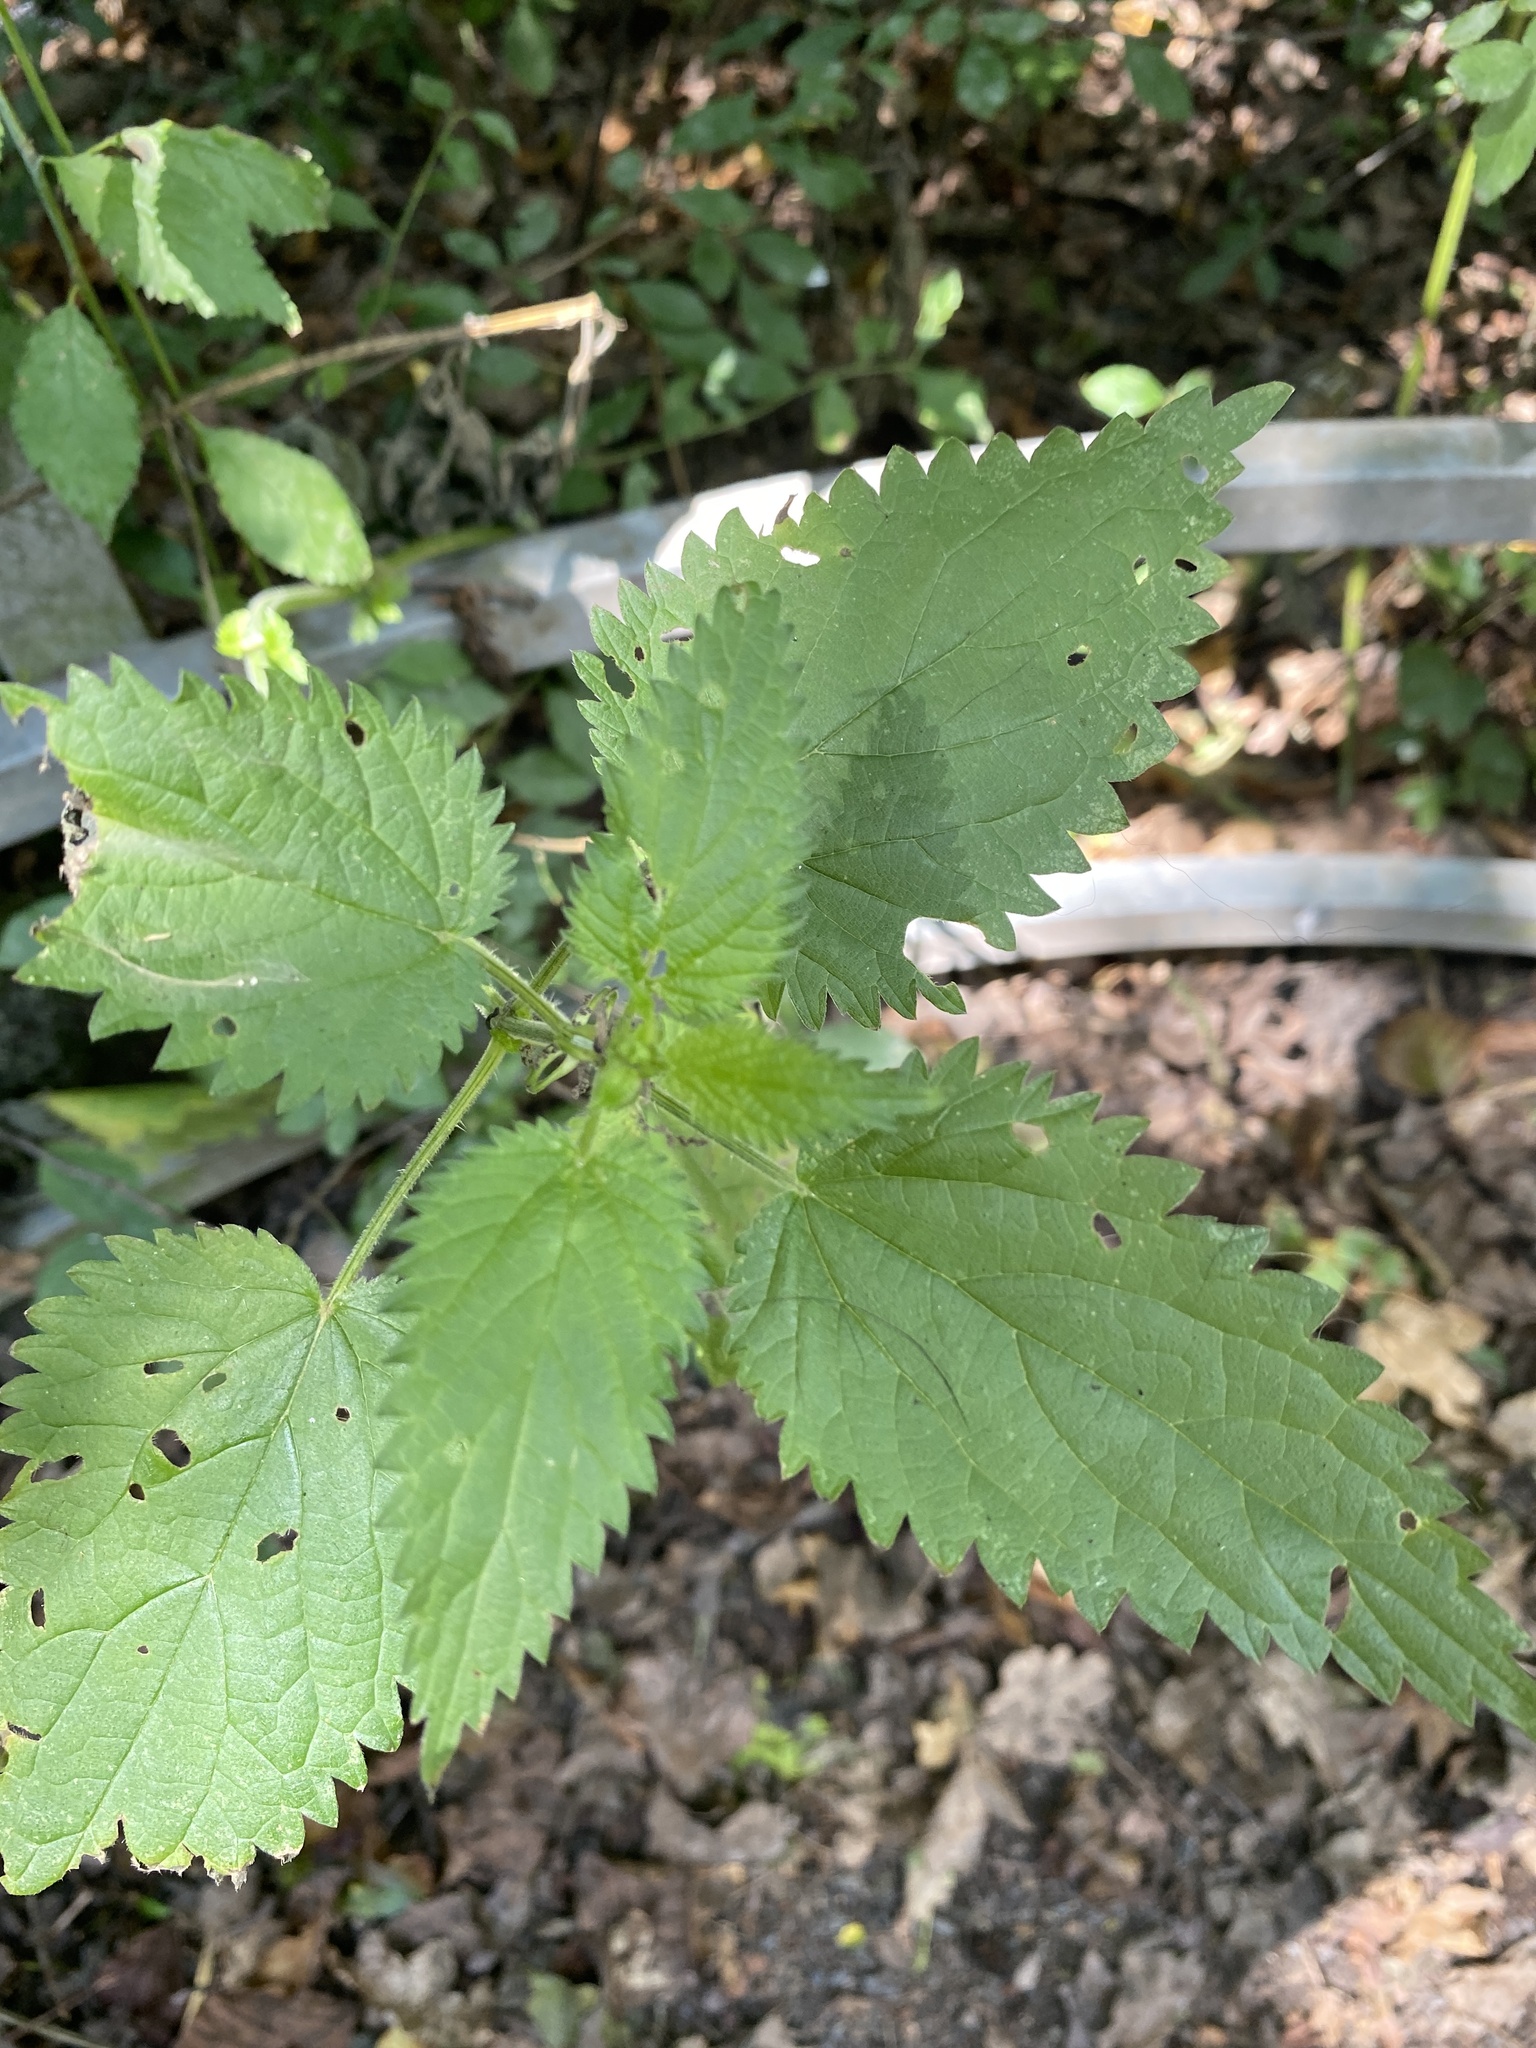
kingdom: Plantae
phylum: Tracheophyta
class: Magnoliopsida
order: Rosales
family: Urticaceae
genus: Urtica
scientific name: Urtica dioica
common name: Common nettle
